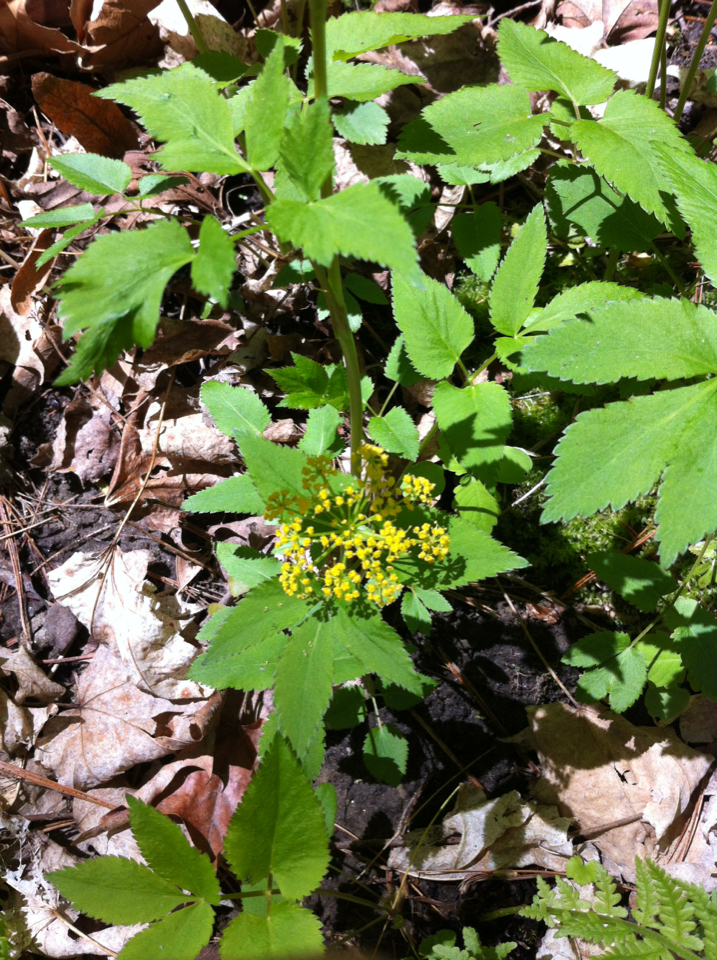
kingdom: Plantae
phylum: Tracheophyta
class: Magnoliopsida
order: Apiales
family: Apiaceae
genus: Zizia
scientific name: Zizia aurea
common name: Golden alexanders
